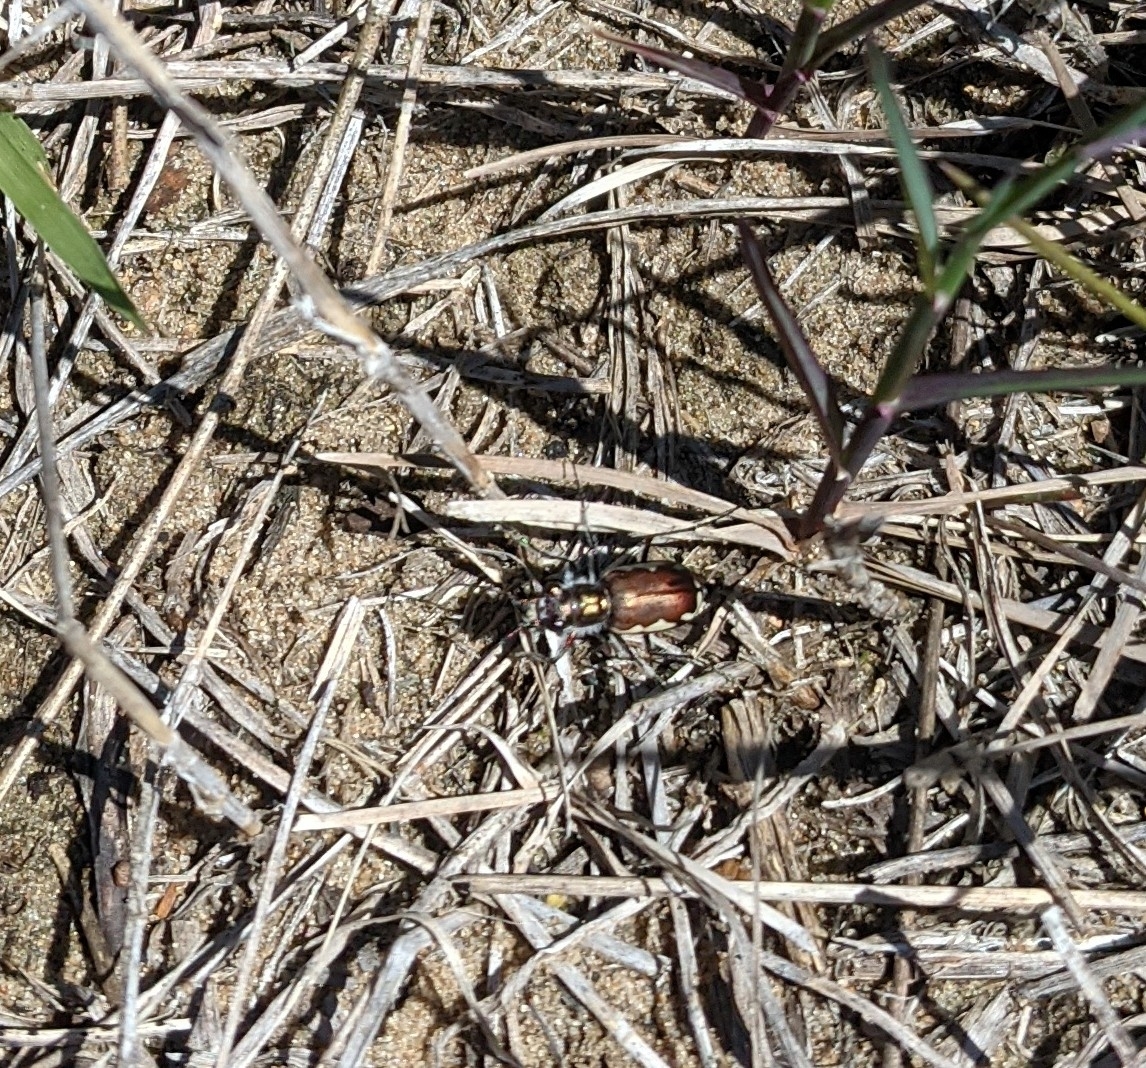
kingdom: Animalia
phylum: Arthropoda
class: Insecta
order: Coleoptera
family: Carabidae
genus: Cicindela
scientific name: Cicindela scutellaris
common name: Festive tiger beetle
